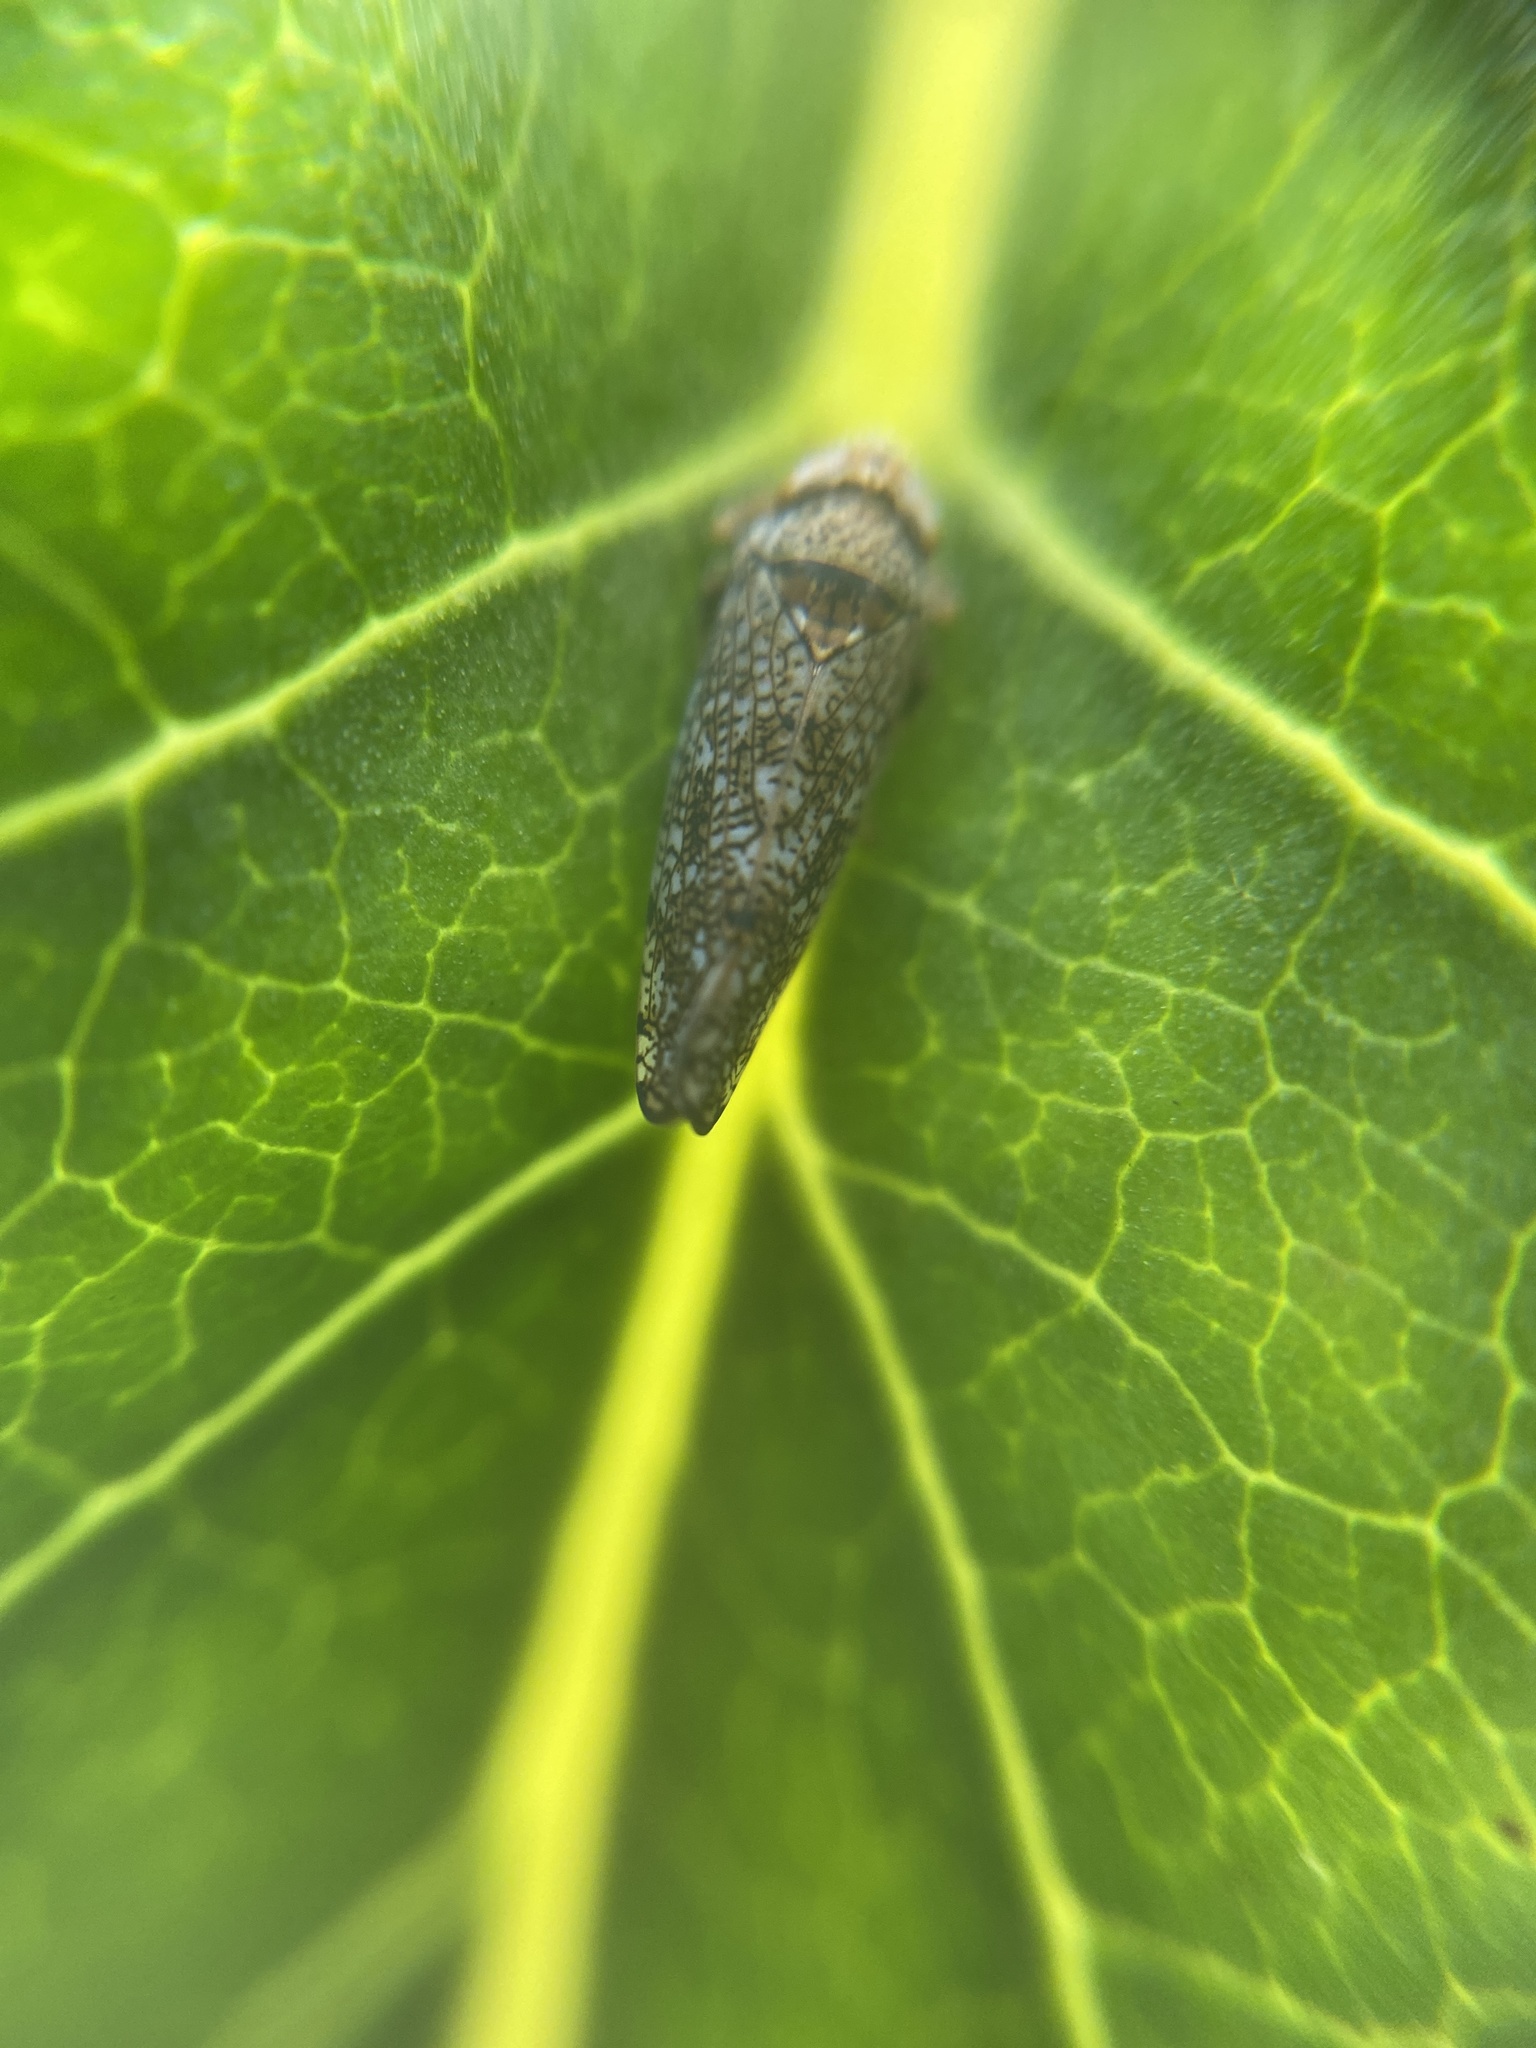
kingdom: Animalia
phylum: Arthropoda
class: Insecta
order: Hemiptera
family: Cicadellidae
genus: Orientus
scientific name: Orientus ishidae
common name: Japanese leafhopper
